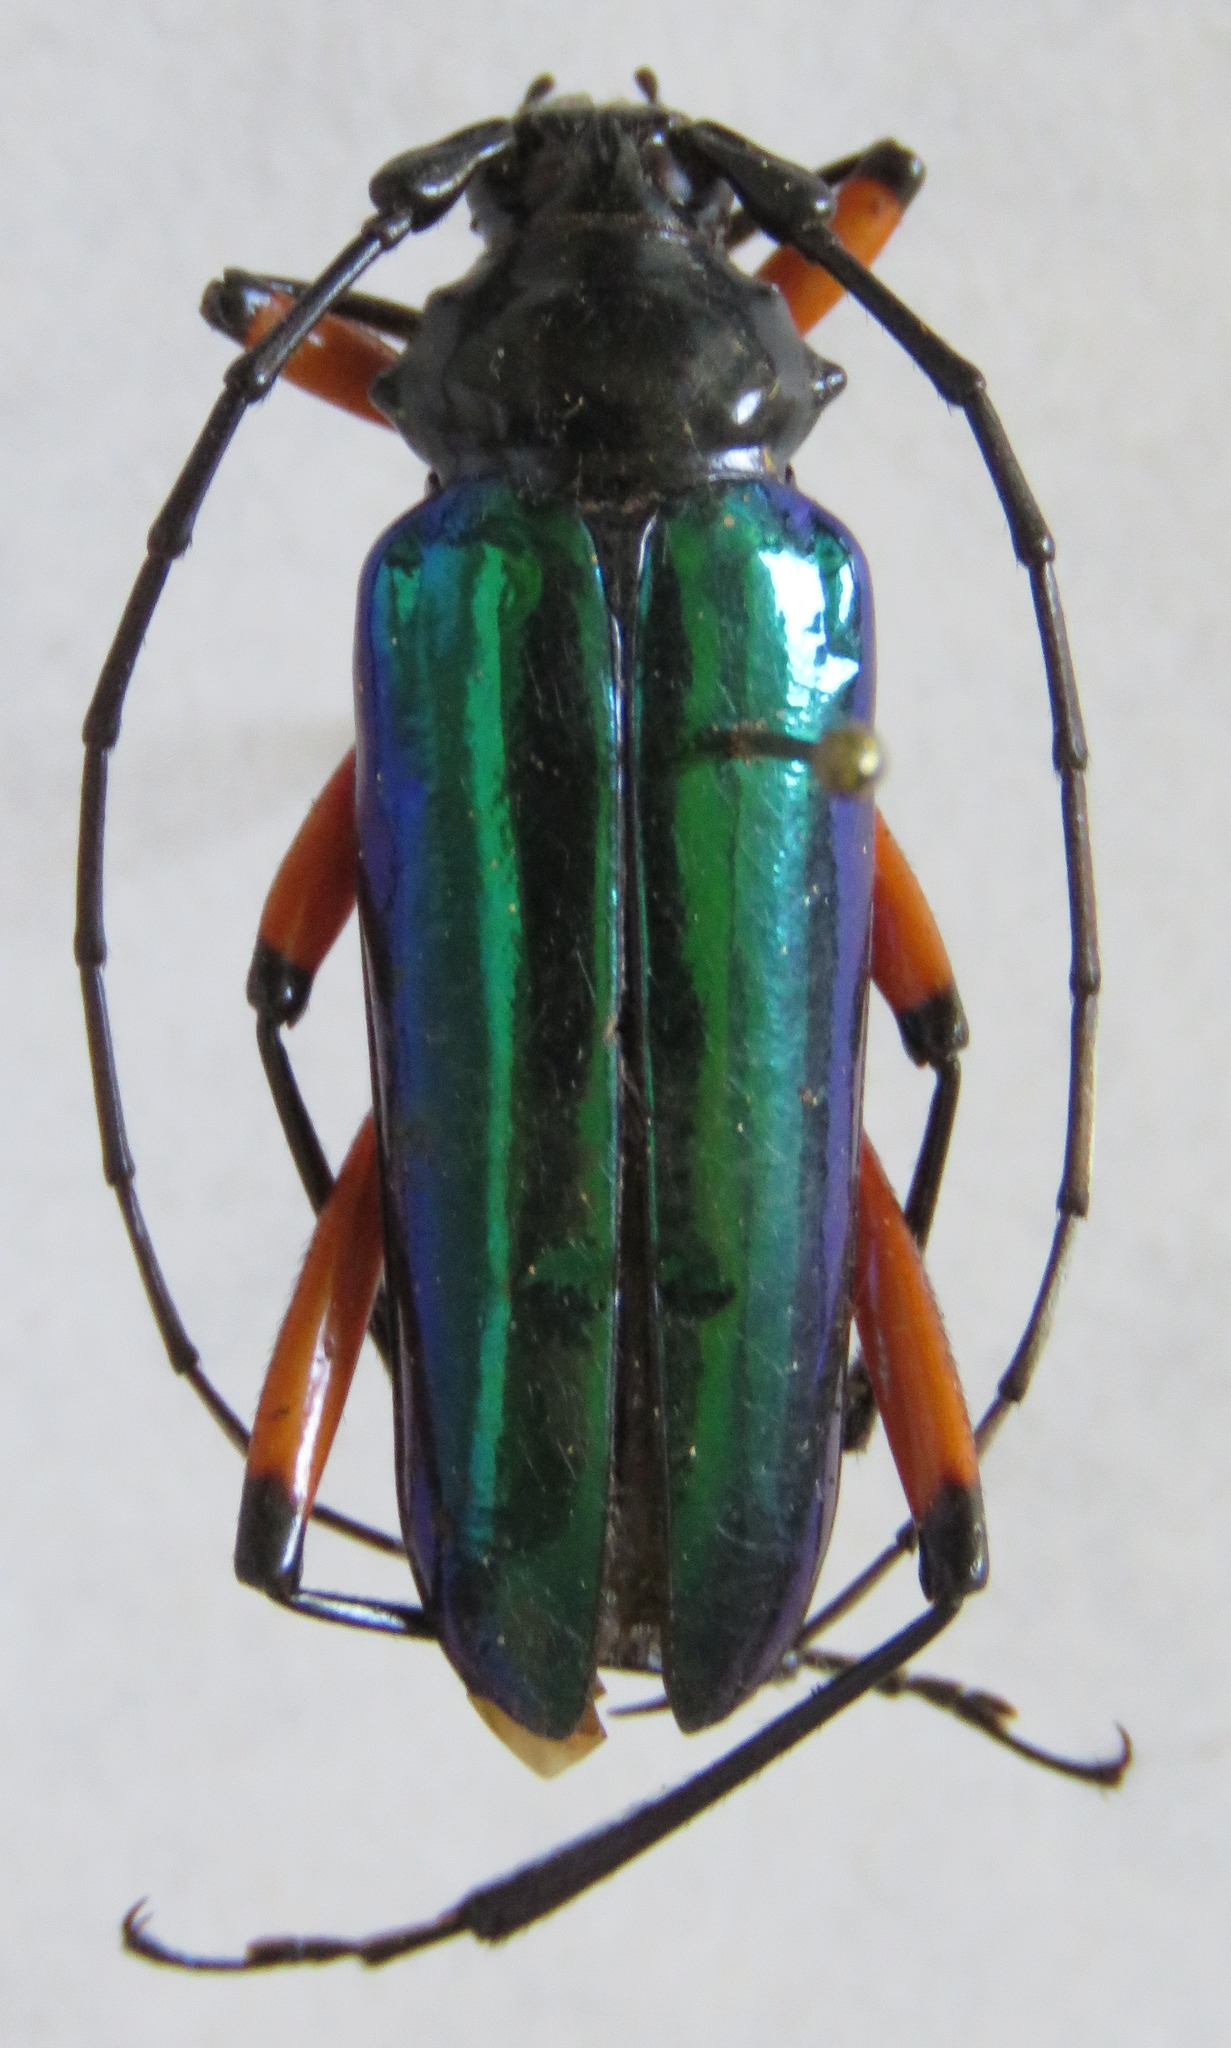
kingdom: Animalia
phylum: Arthropoda
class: Insecta
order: Coleoptera
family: Cerambycidae
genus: Callistochroma
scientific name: Callistochroma rutilans
